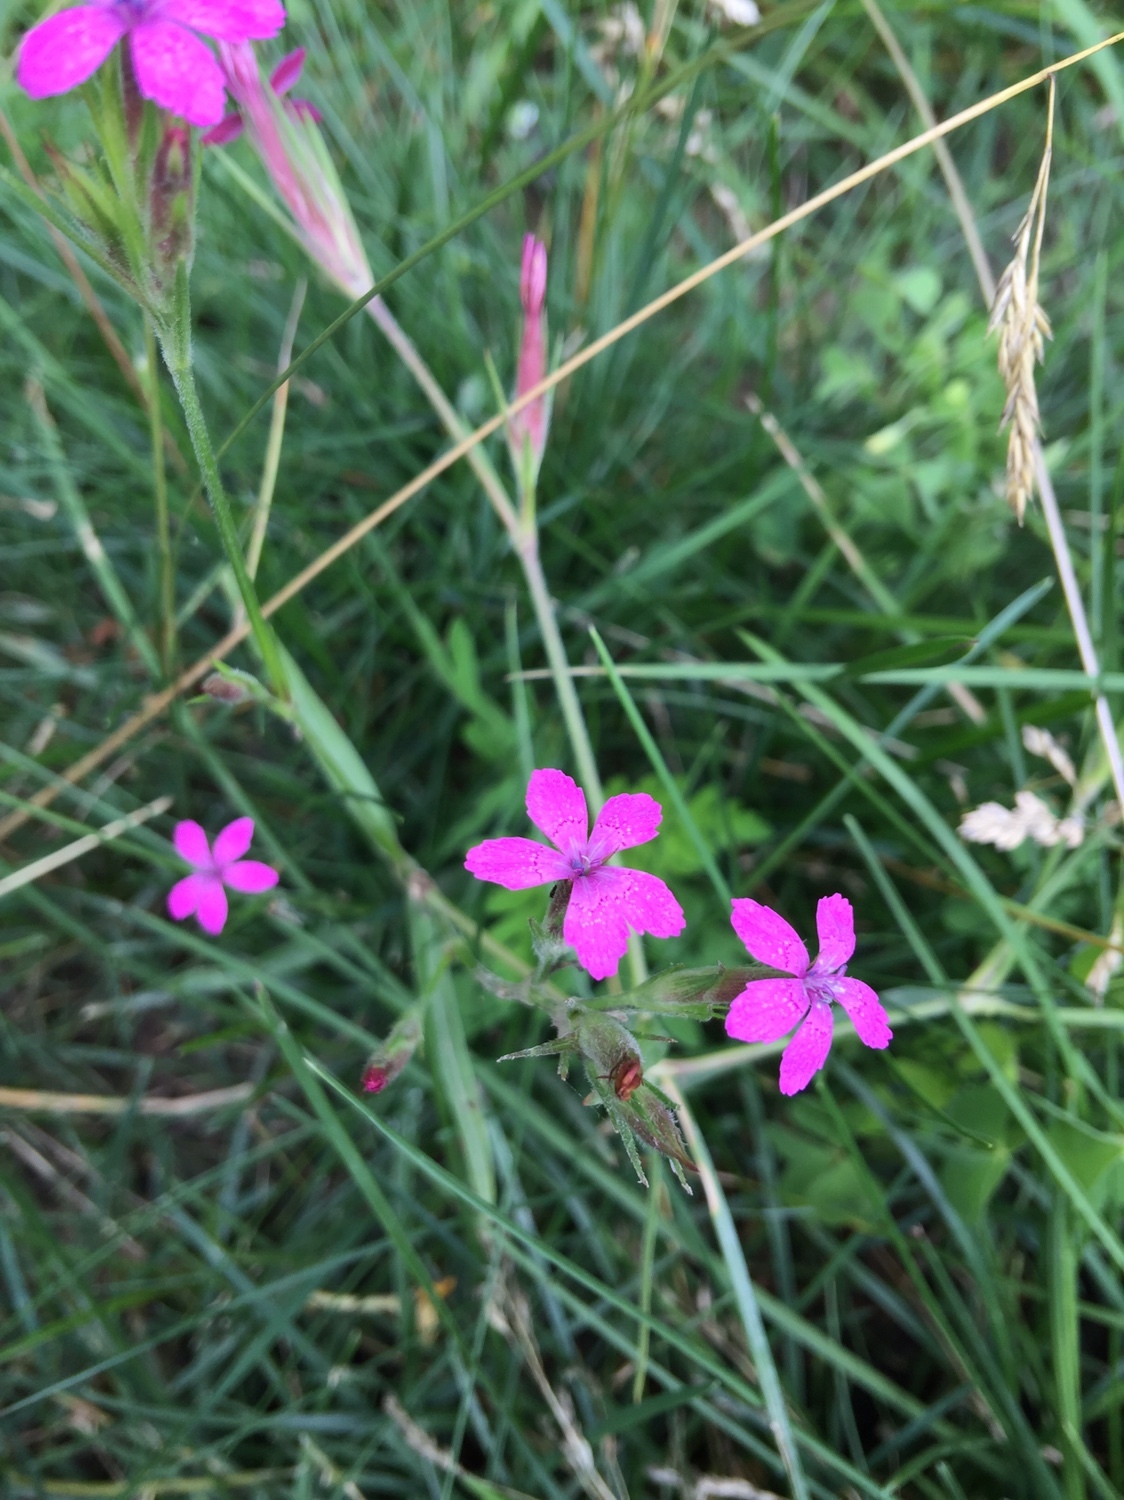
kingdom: Plantae
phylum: Tracheophyta
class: Magnoliopsida
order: Caryophyllales
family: Caryophyllaceae
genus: Dianthus
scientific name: Dianthus armeria
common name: Deptford pink
